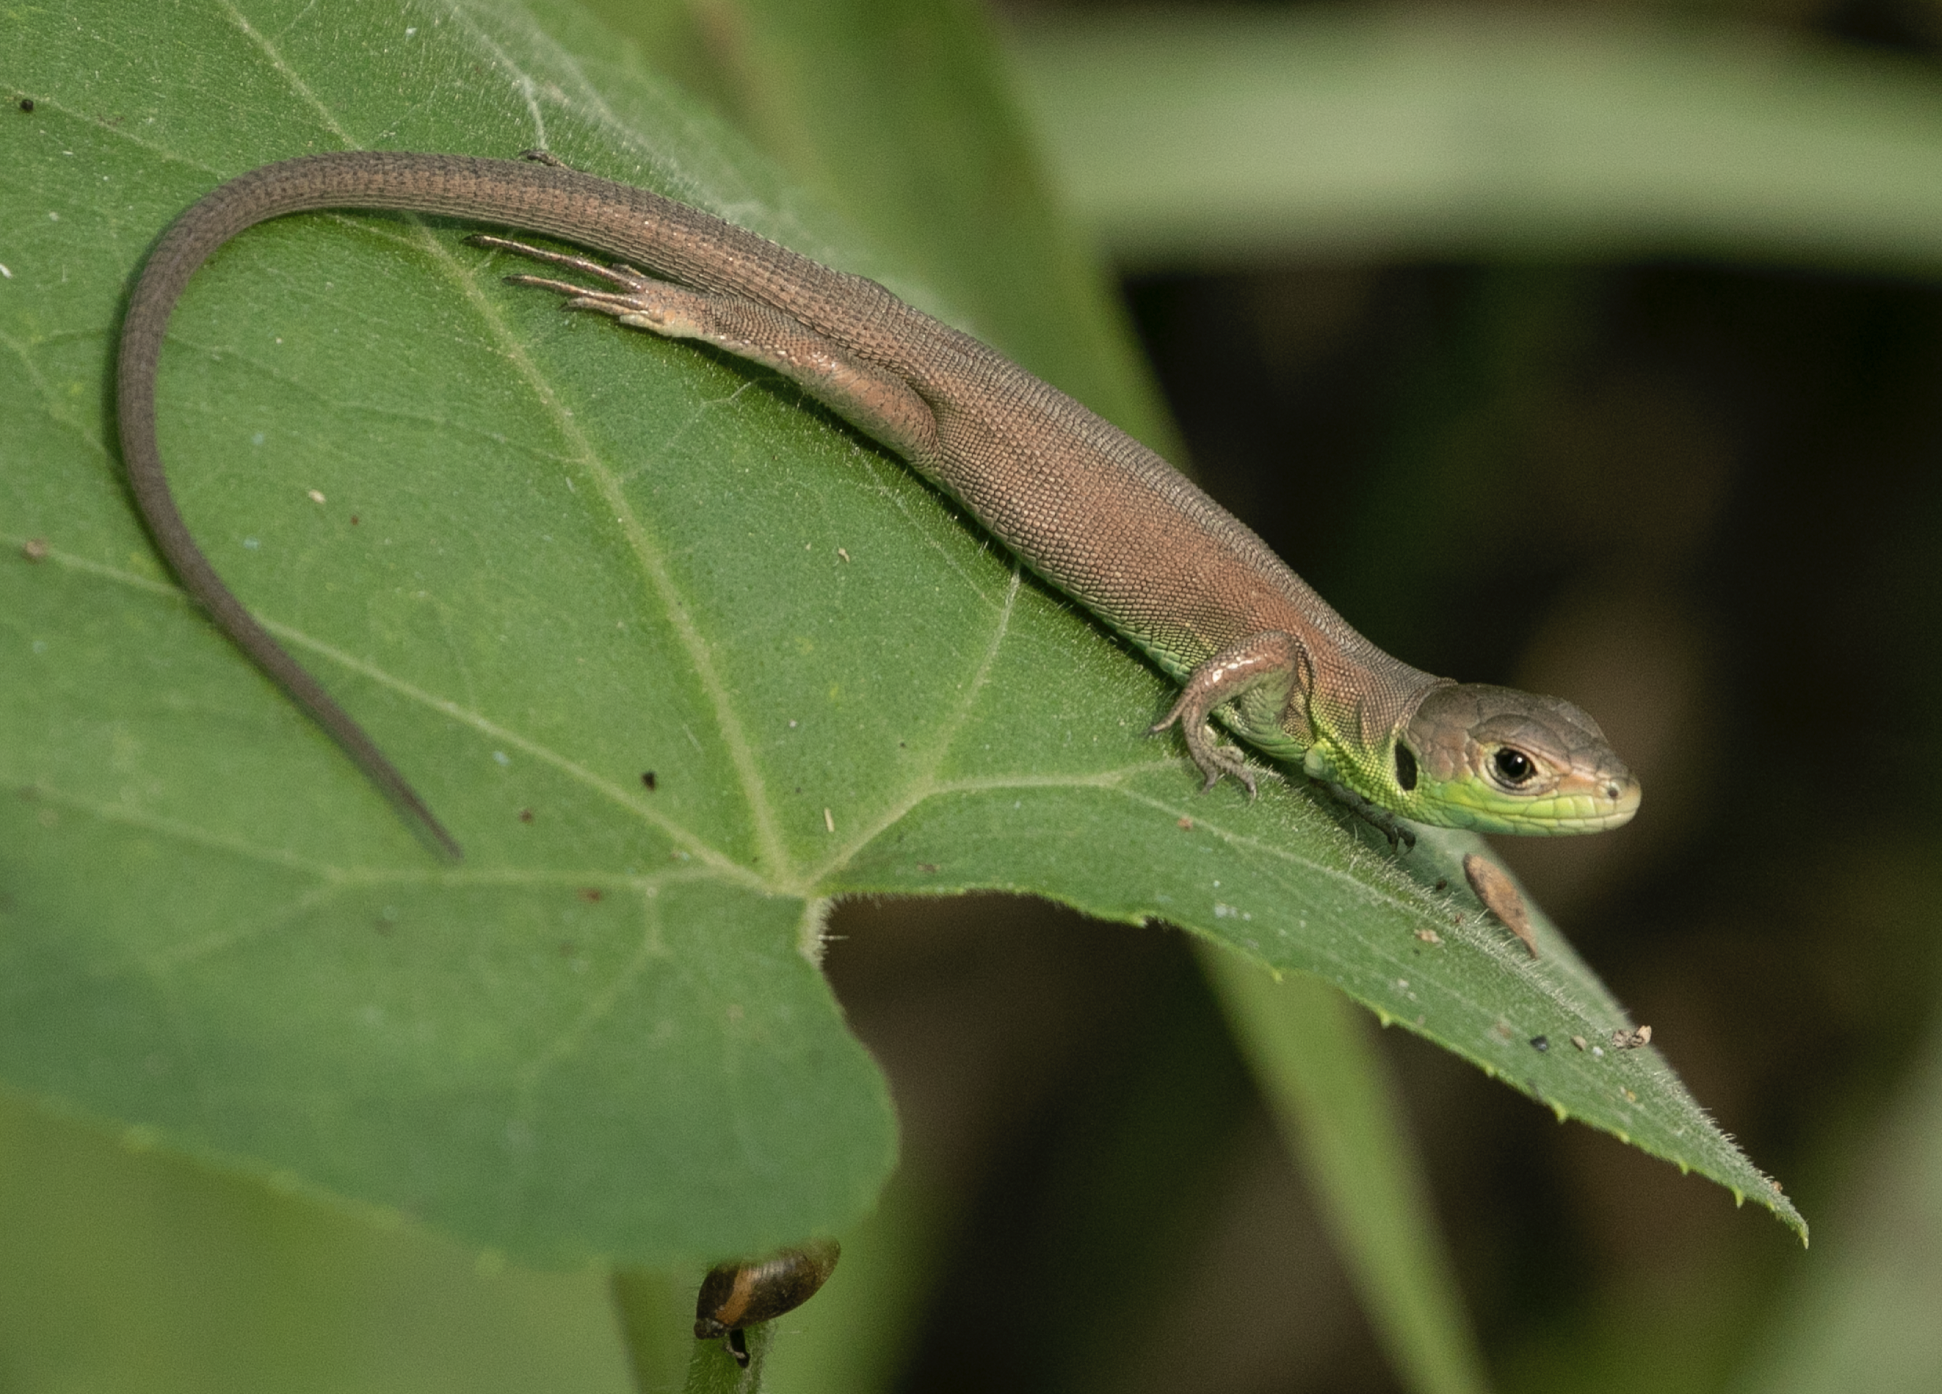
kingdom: Animalia
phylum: Chordata
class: Squamata
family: Lacertidae
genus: Lacerta
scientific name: Lacerta bilineata
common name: Western green lizard
